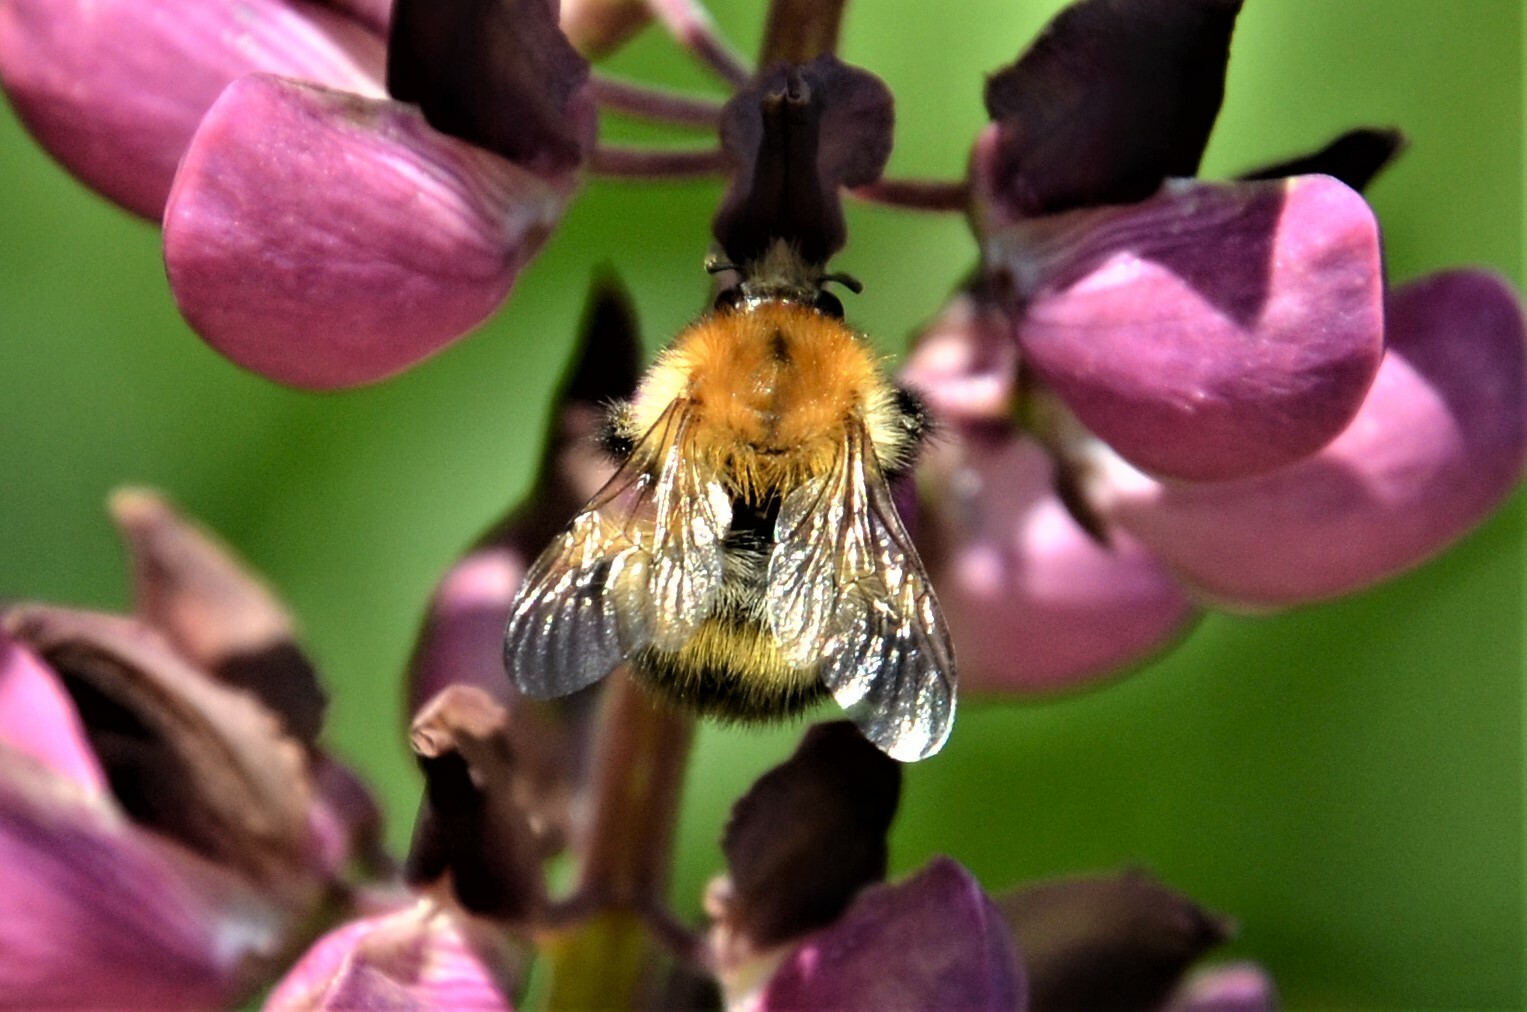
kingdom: Animalia
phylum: Arthropoda
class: Insecta
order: Hymenoptera
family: Apidae
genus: Bombus
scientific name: Bombus pascuorum
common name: Common carder bee
